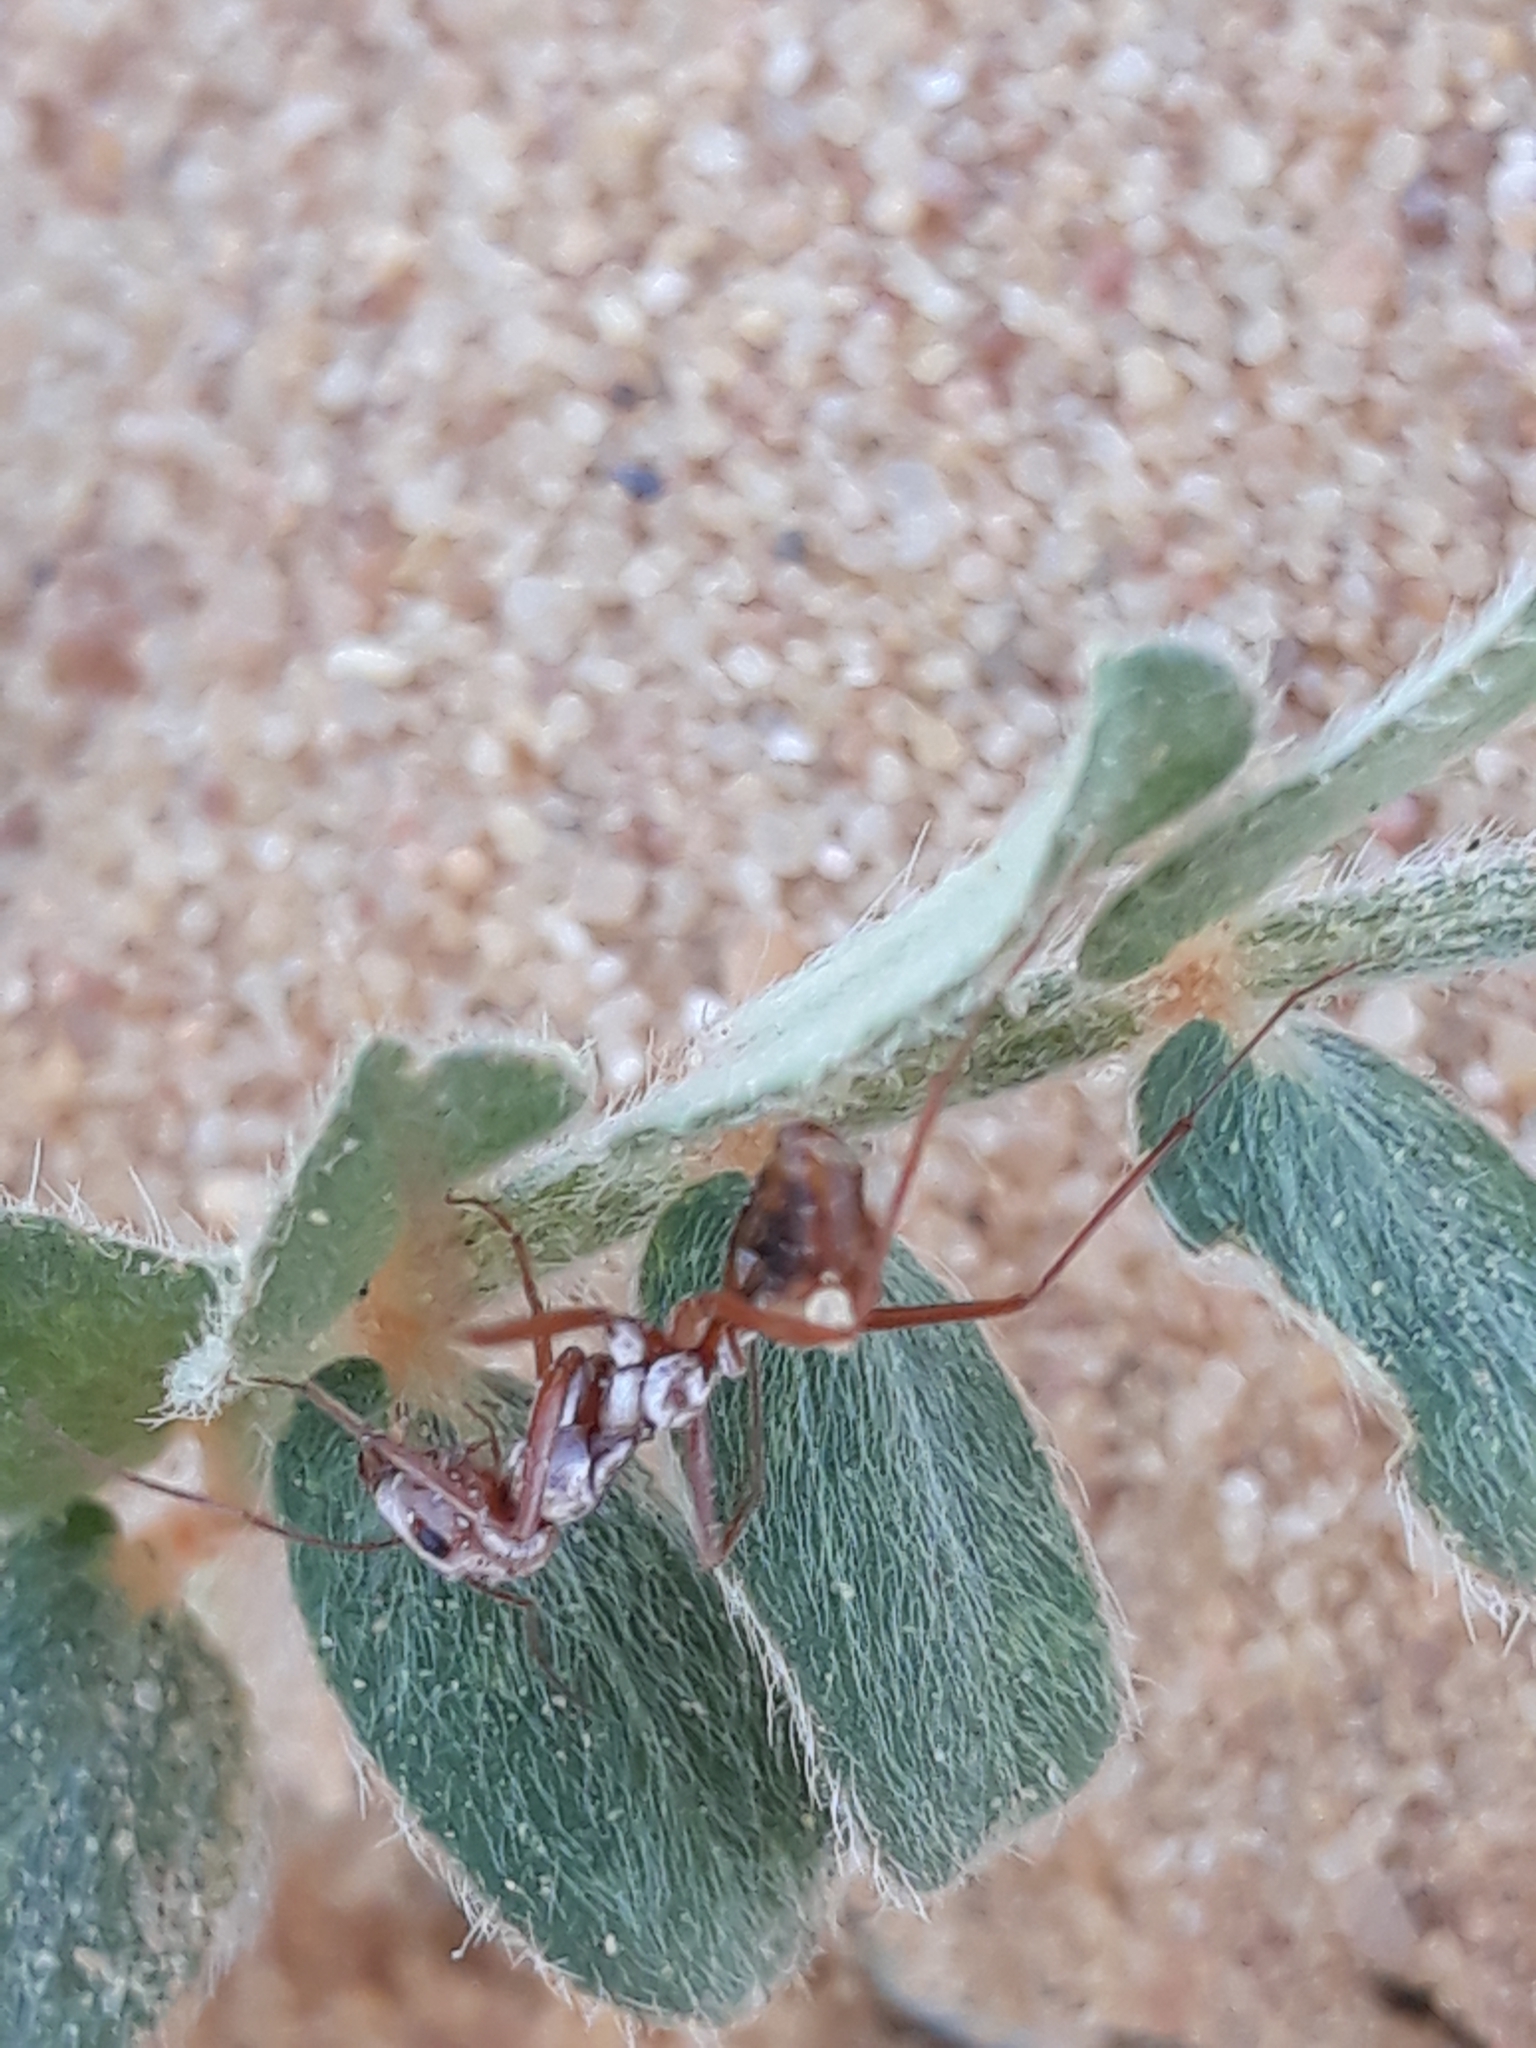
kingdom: Animalia
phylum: Arthropoda
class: Insecta
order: Hymenoptera
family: Formicidae
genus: Cataglyphis
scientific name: Cataglyphis bombycinus
